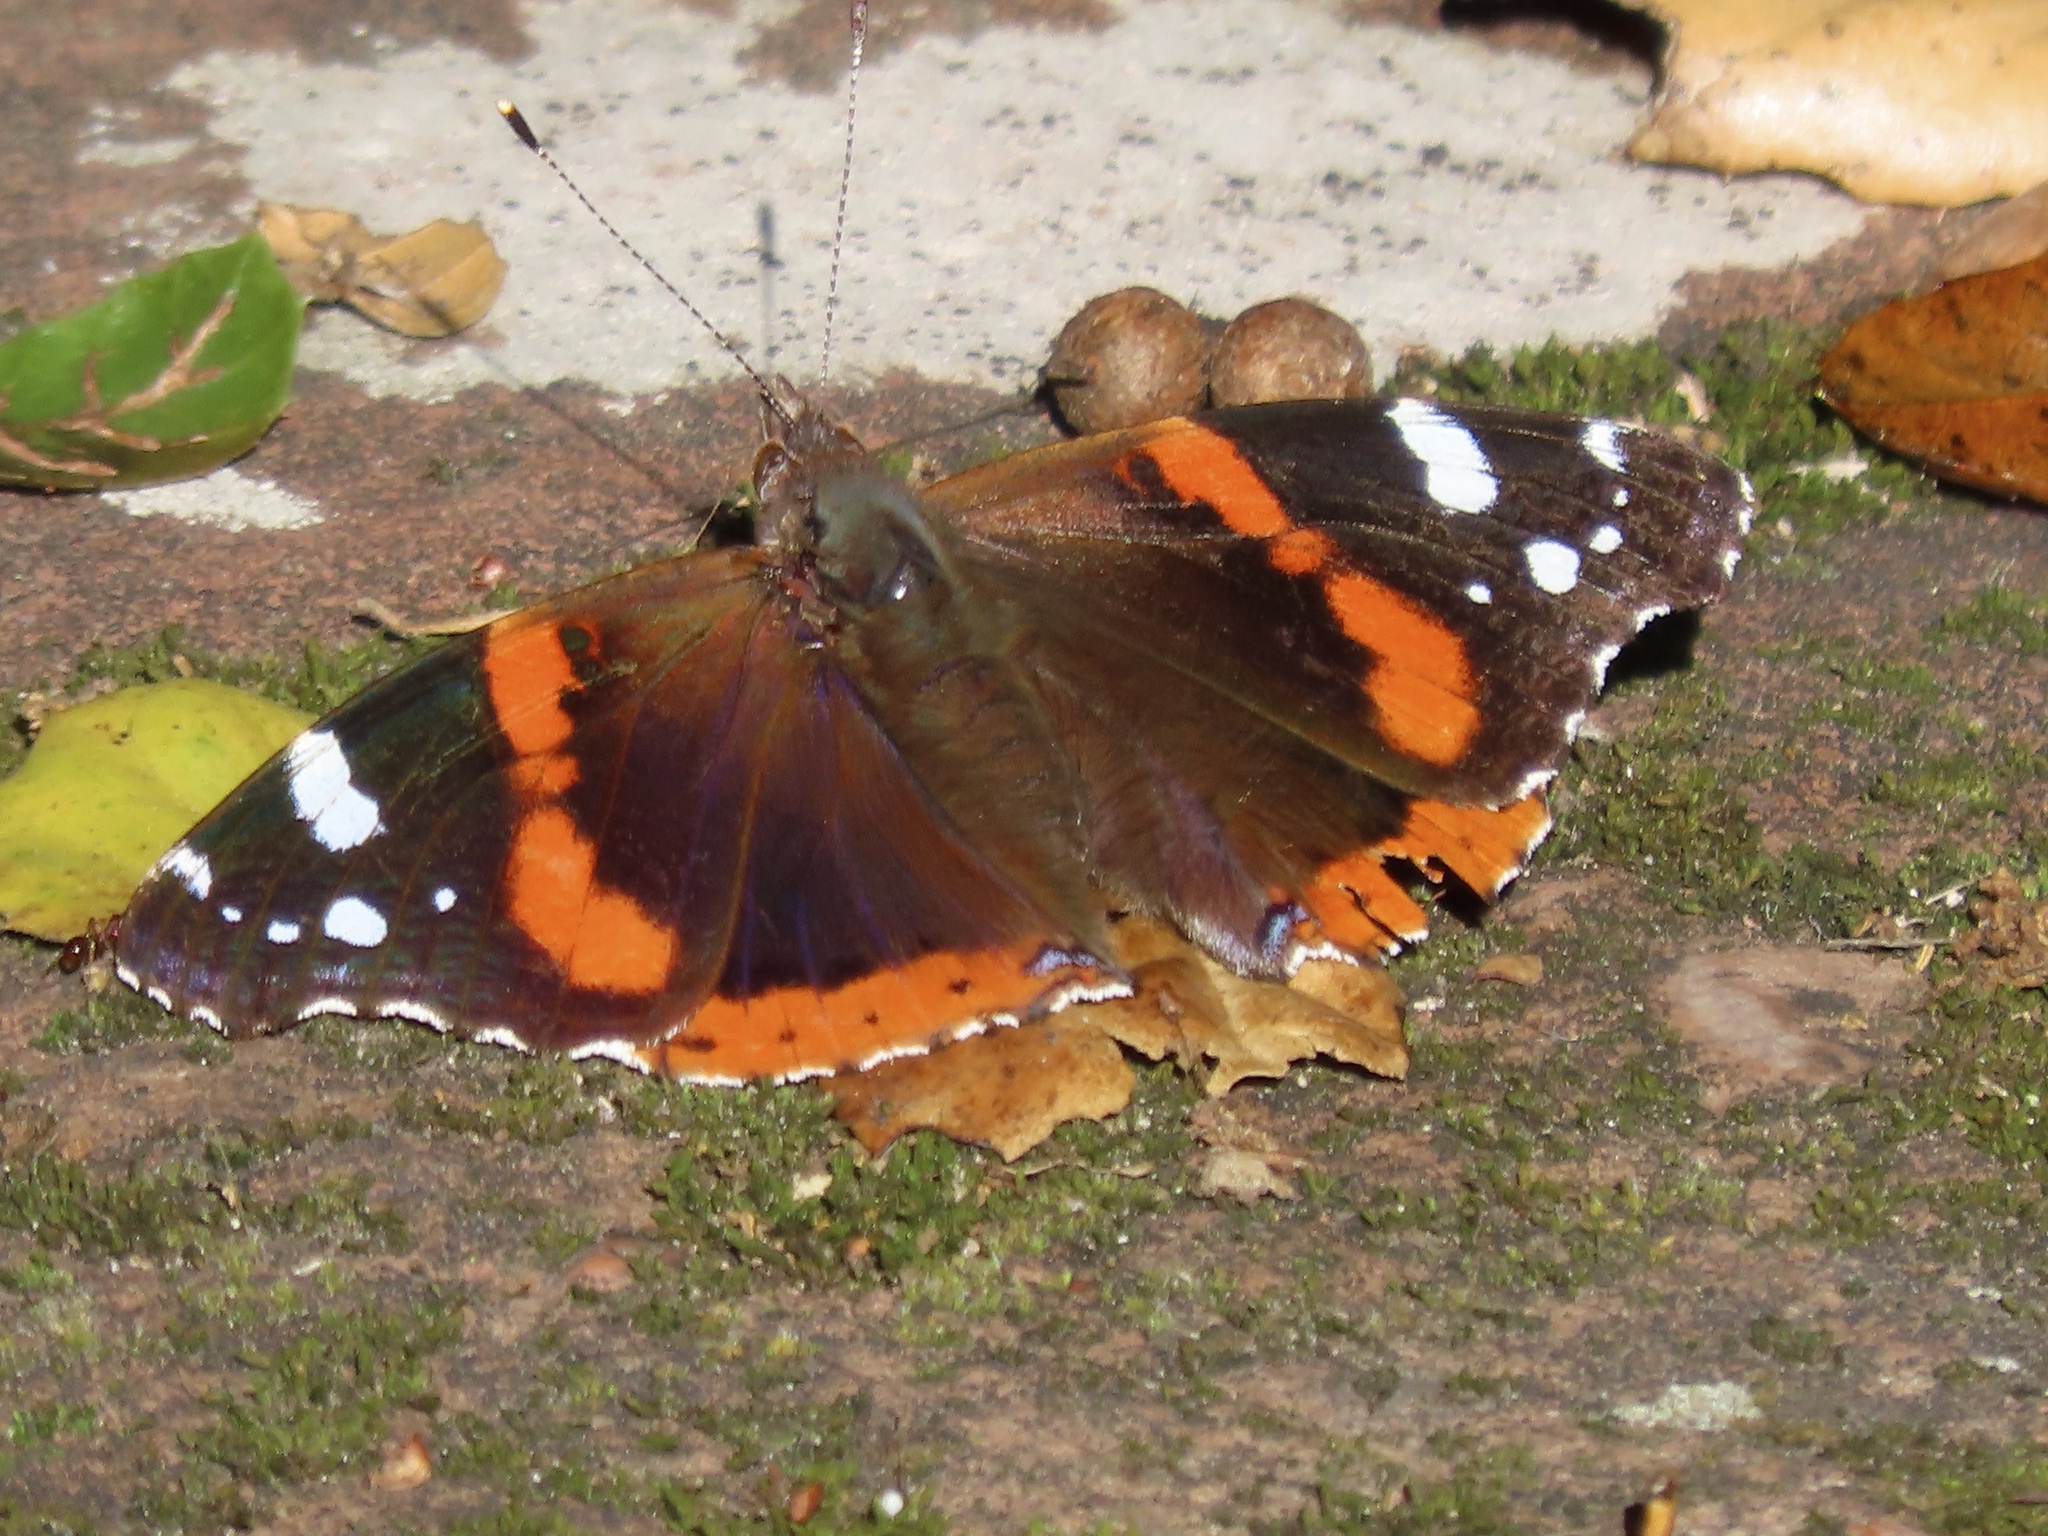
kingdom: Animalia
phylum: Arthropoda
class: Insecta
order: Lepidoptera
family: Nymphalidae
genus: Vanessa
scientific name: Vanessa atalanta
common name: Red admiral
